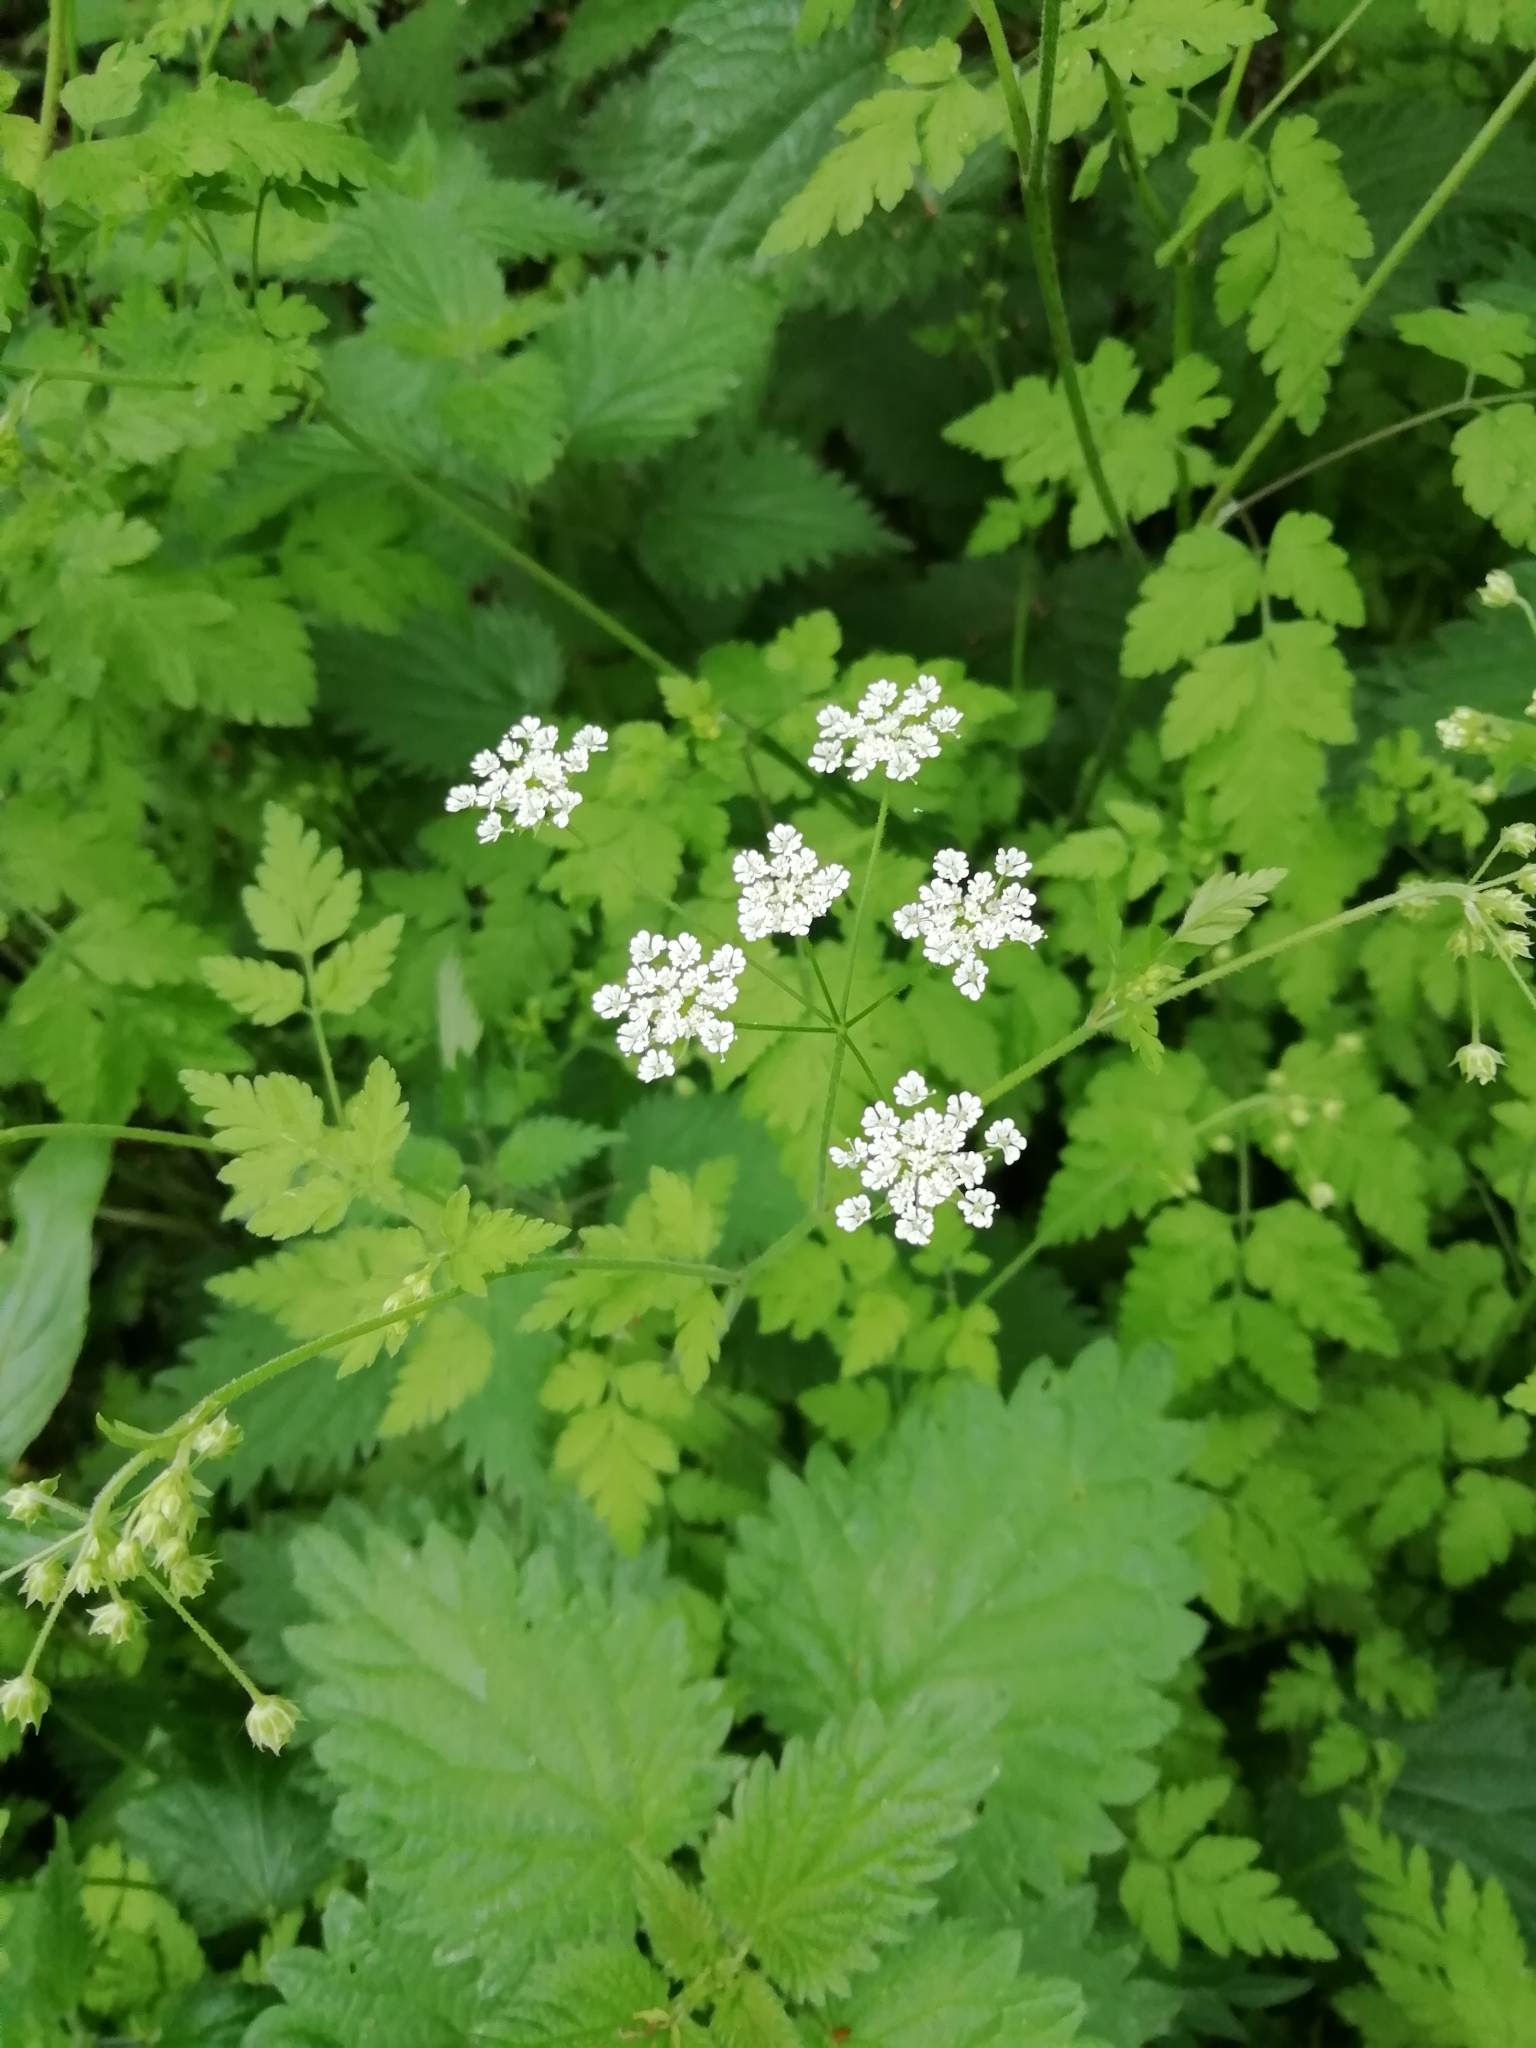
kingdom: Plantae
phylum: Tracheophyta
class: Magnoliopsida
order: Apiales
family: Apiaceae
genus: Chaerophyllum
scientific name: Chaerophyllum temulum
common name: Rough chervil
